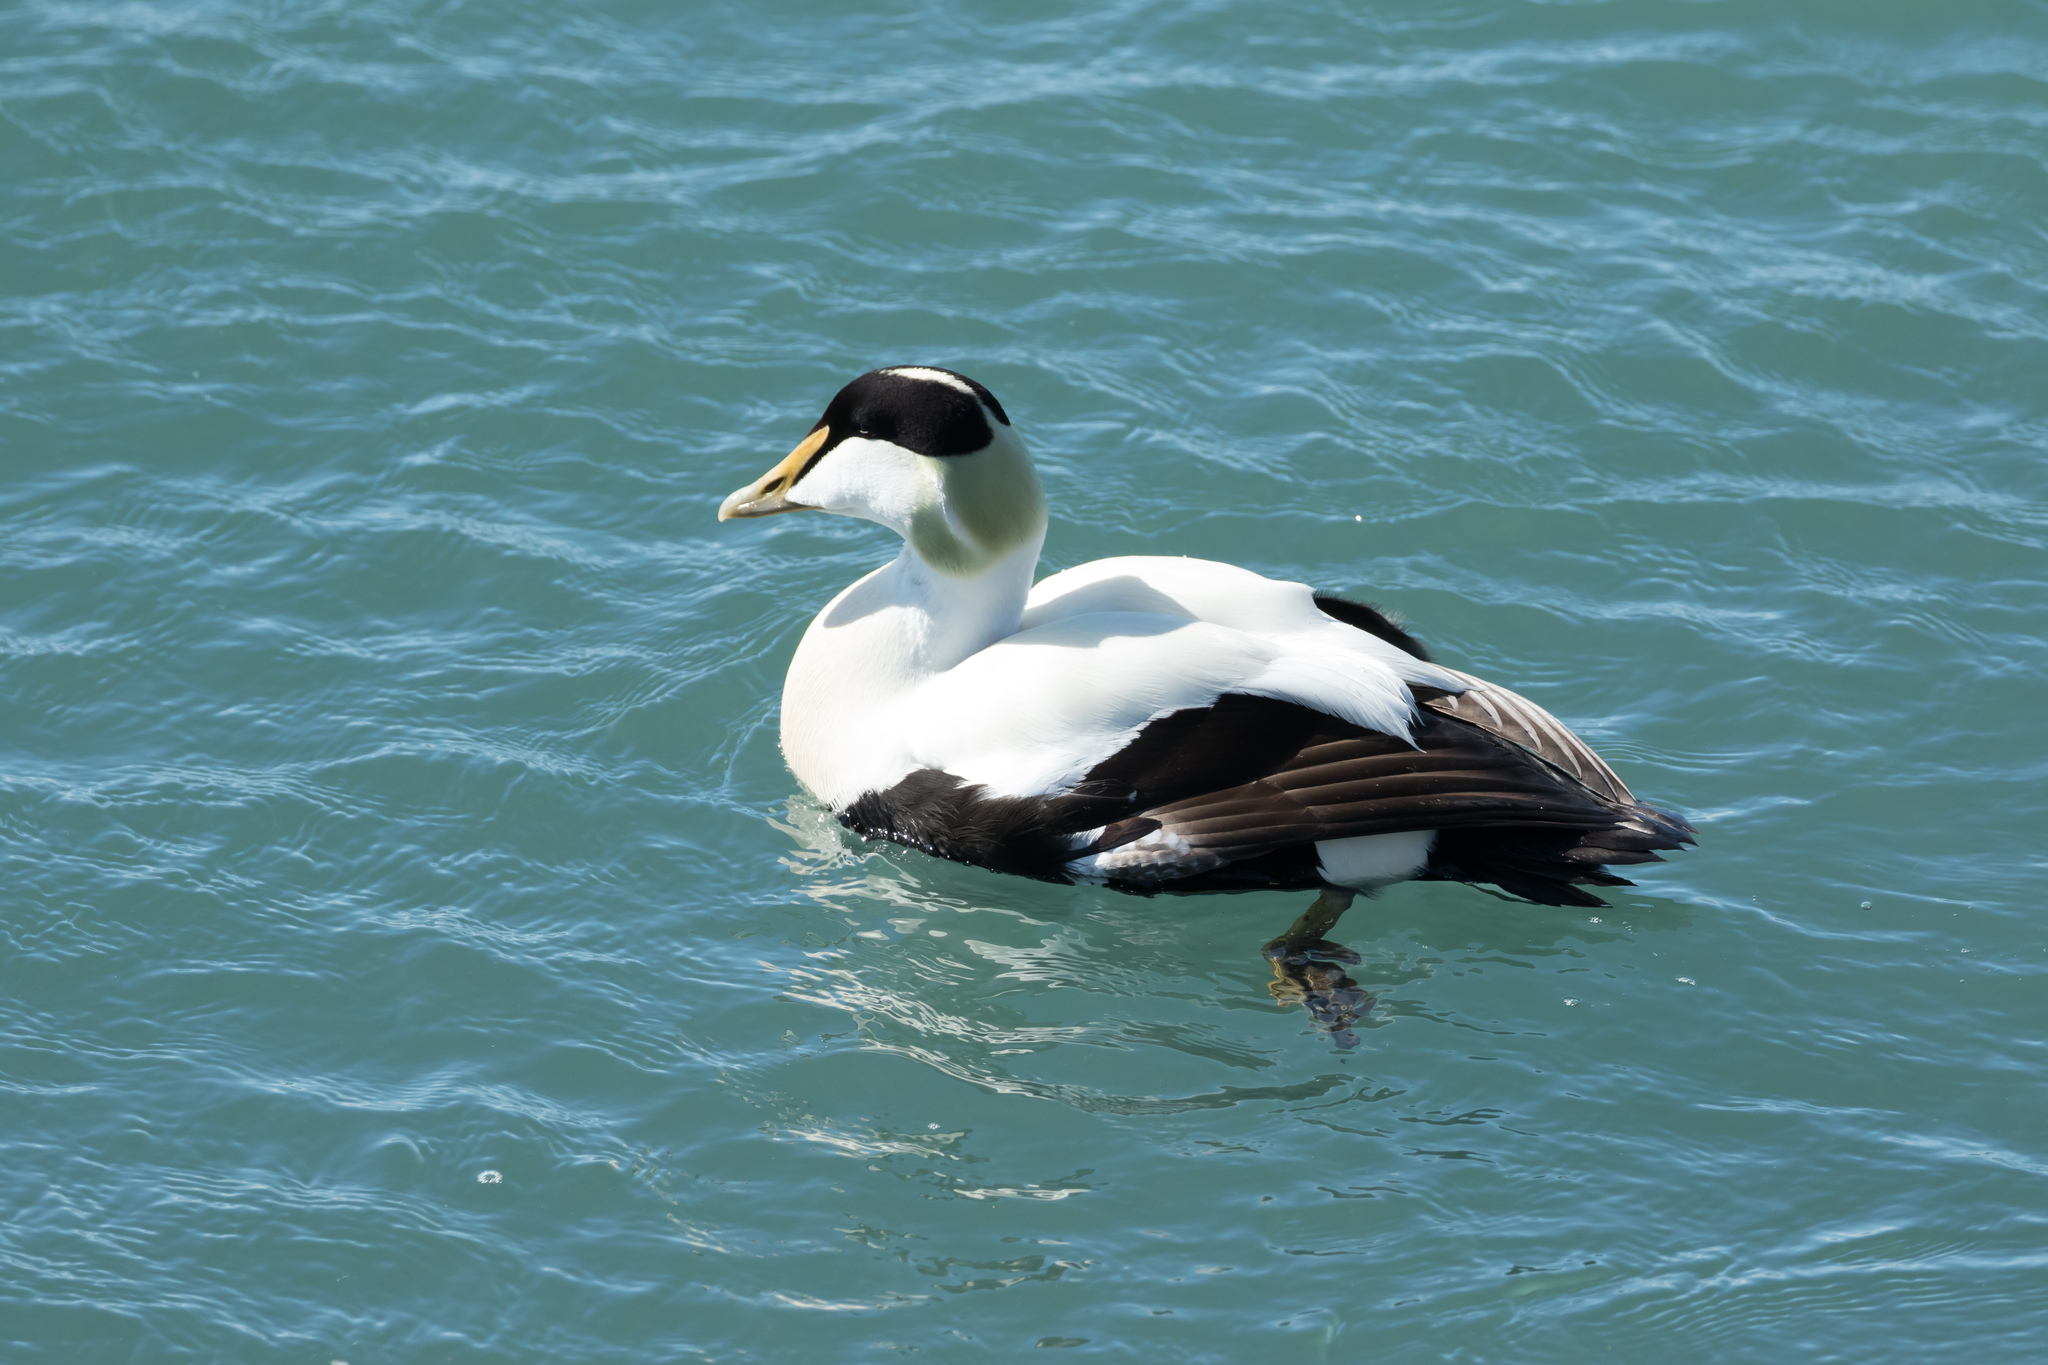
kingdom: Animalia
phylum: Chordata
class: Aves
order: Anseriformes
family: Anatidae
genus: Somateria
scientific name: Somateria mollissima
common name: Common eider
